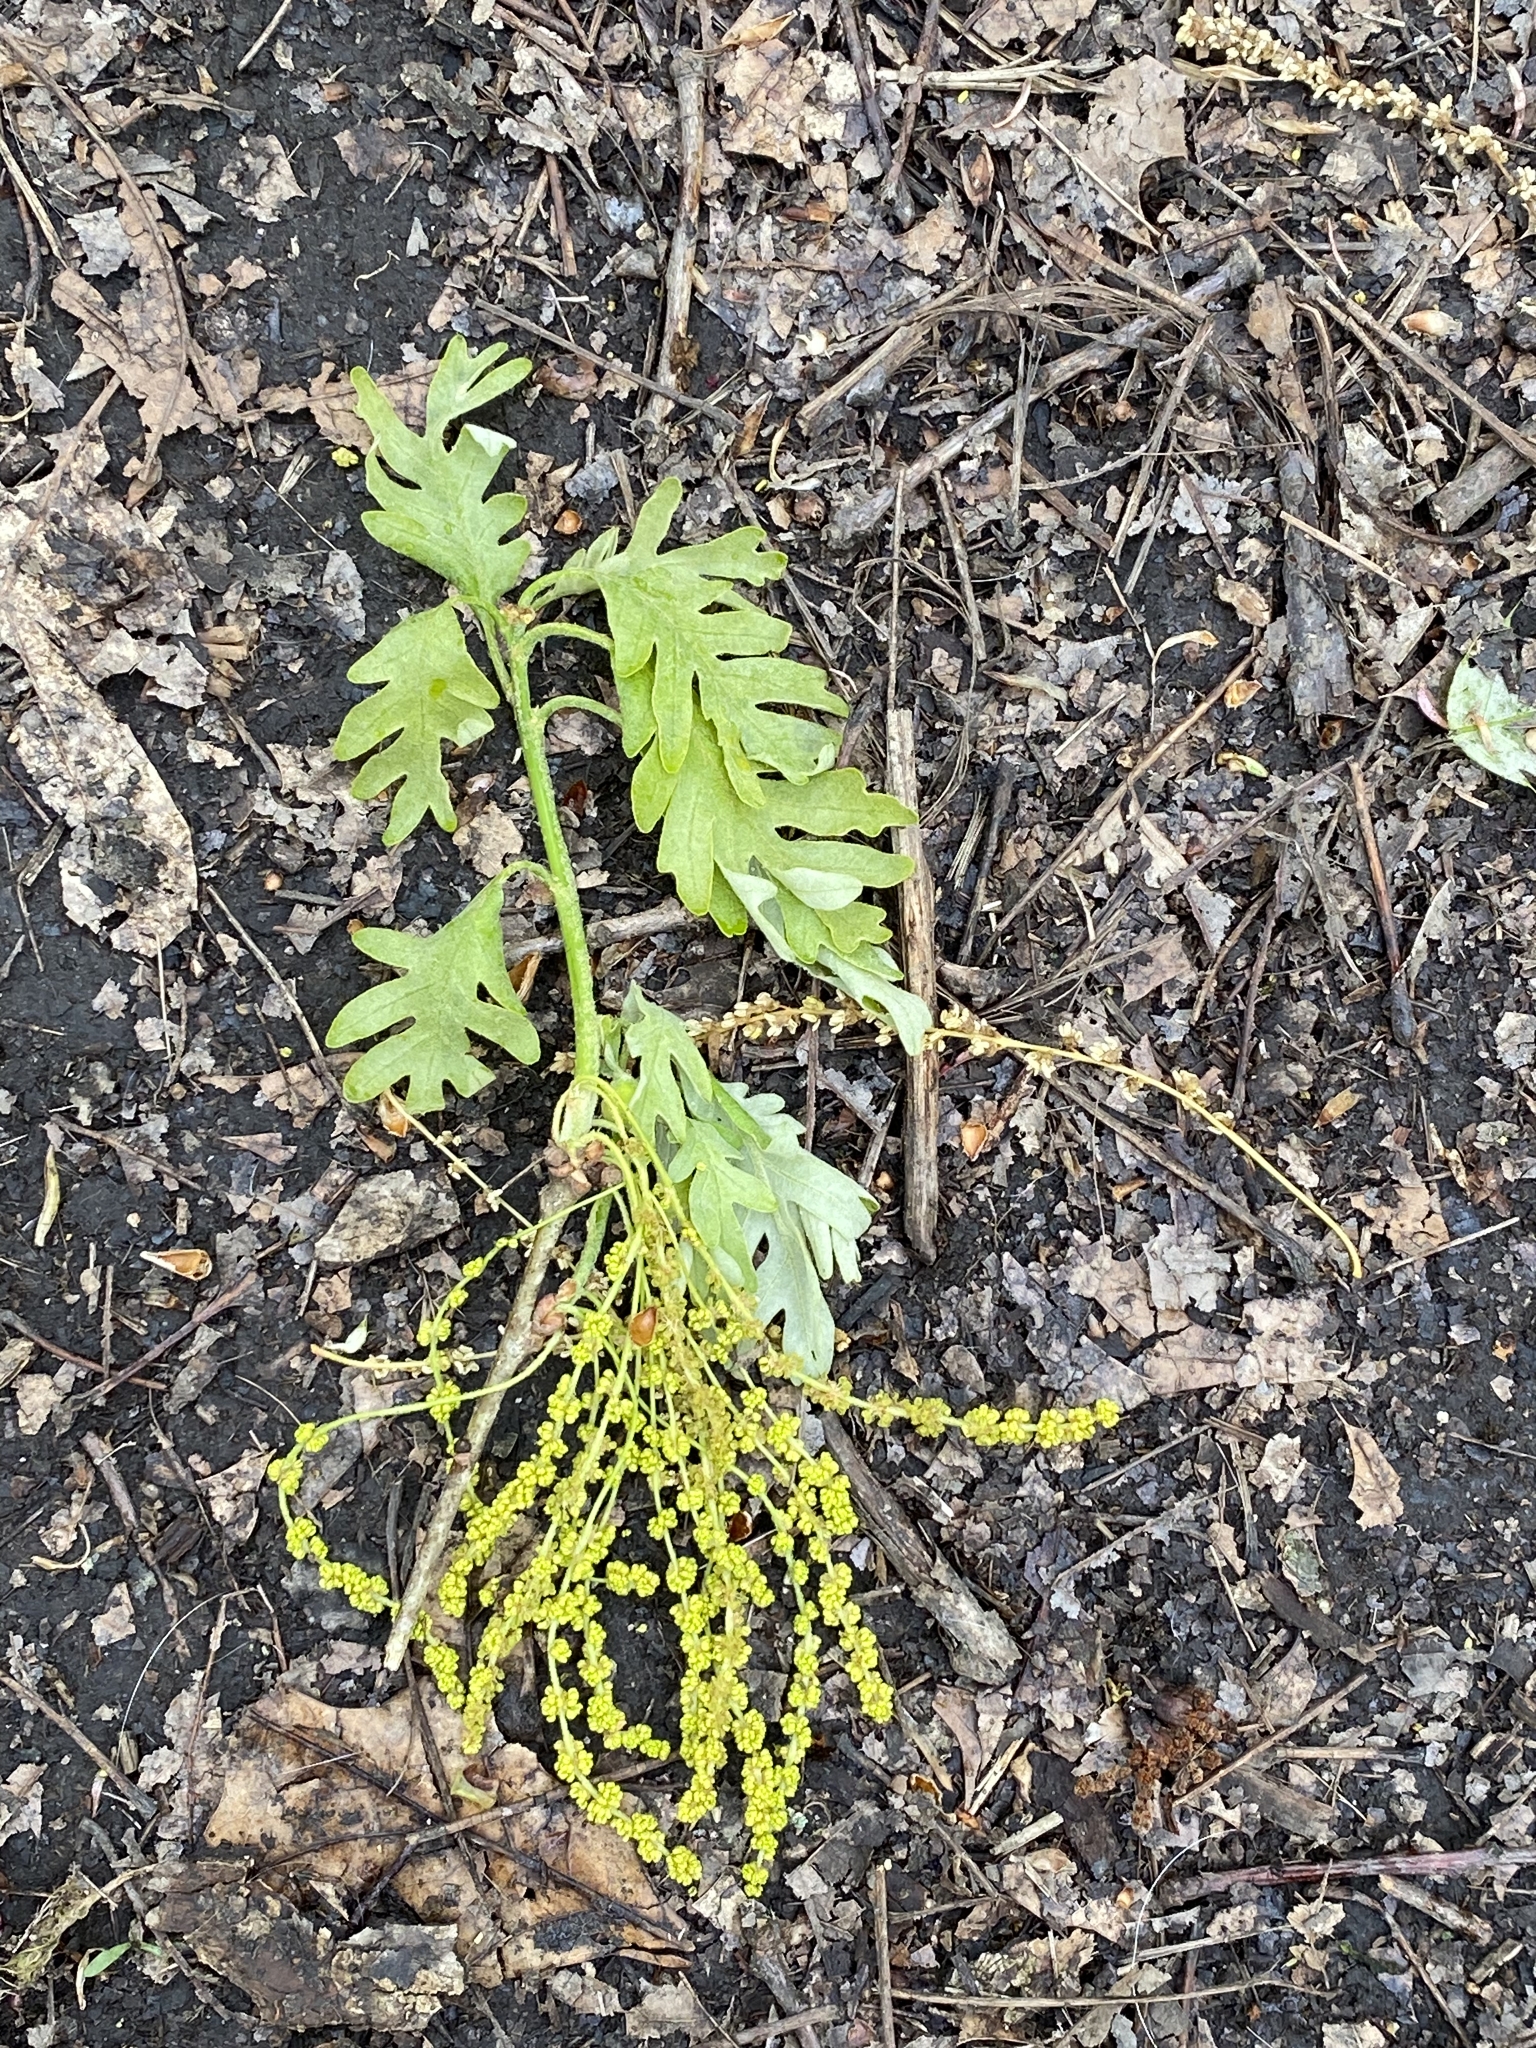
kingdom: Plantae
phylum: Tracheophyta
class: Magnoliopsida
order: Fagales
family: Fagaceae
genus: Quercus
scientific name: Quercus alba
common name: White oak
